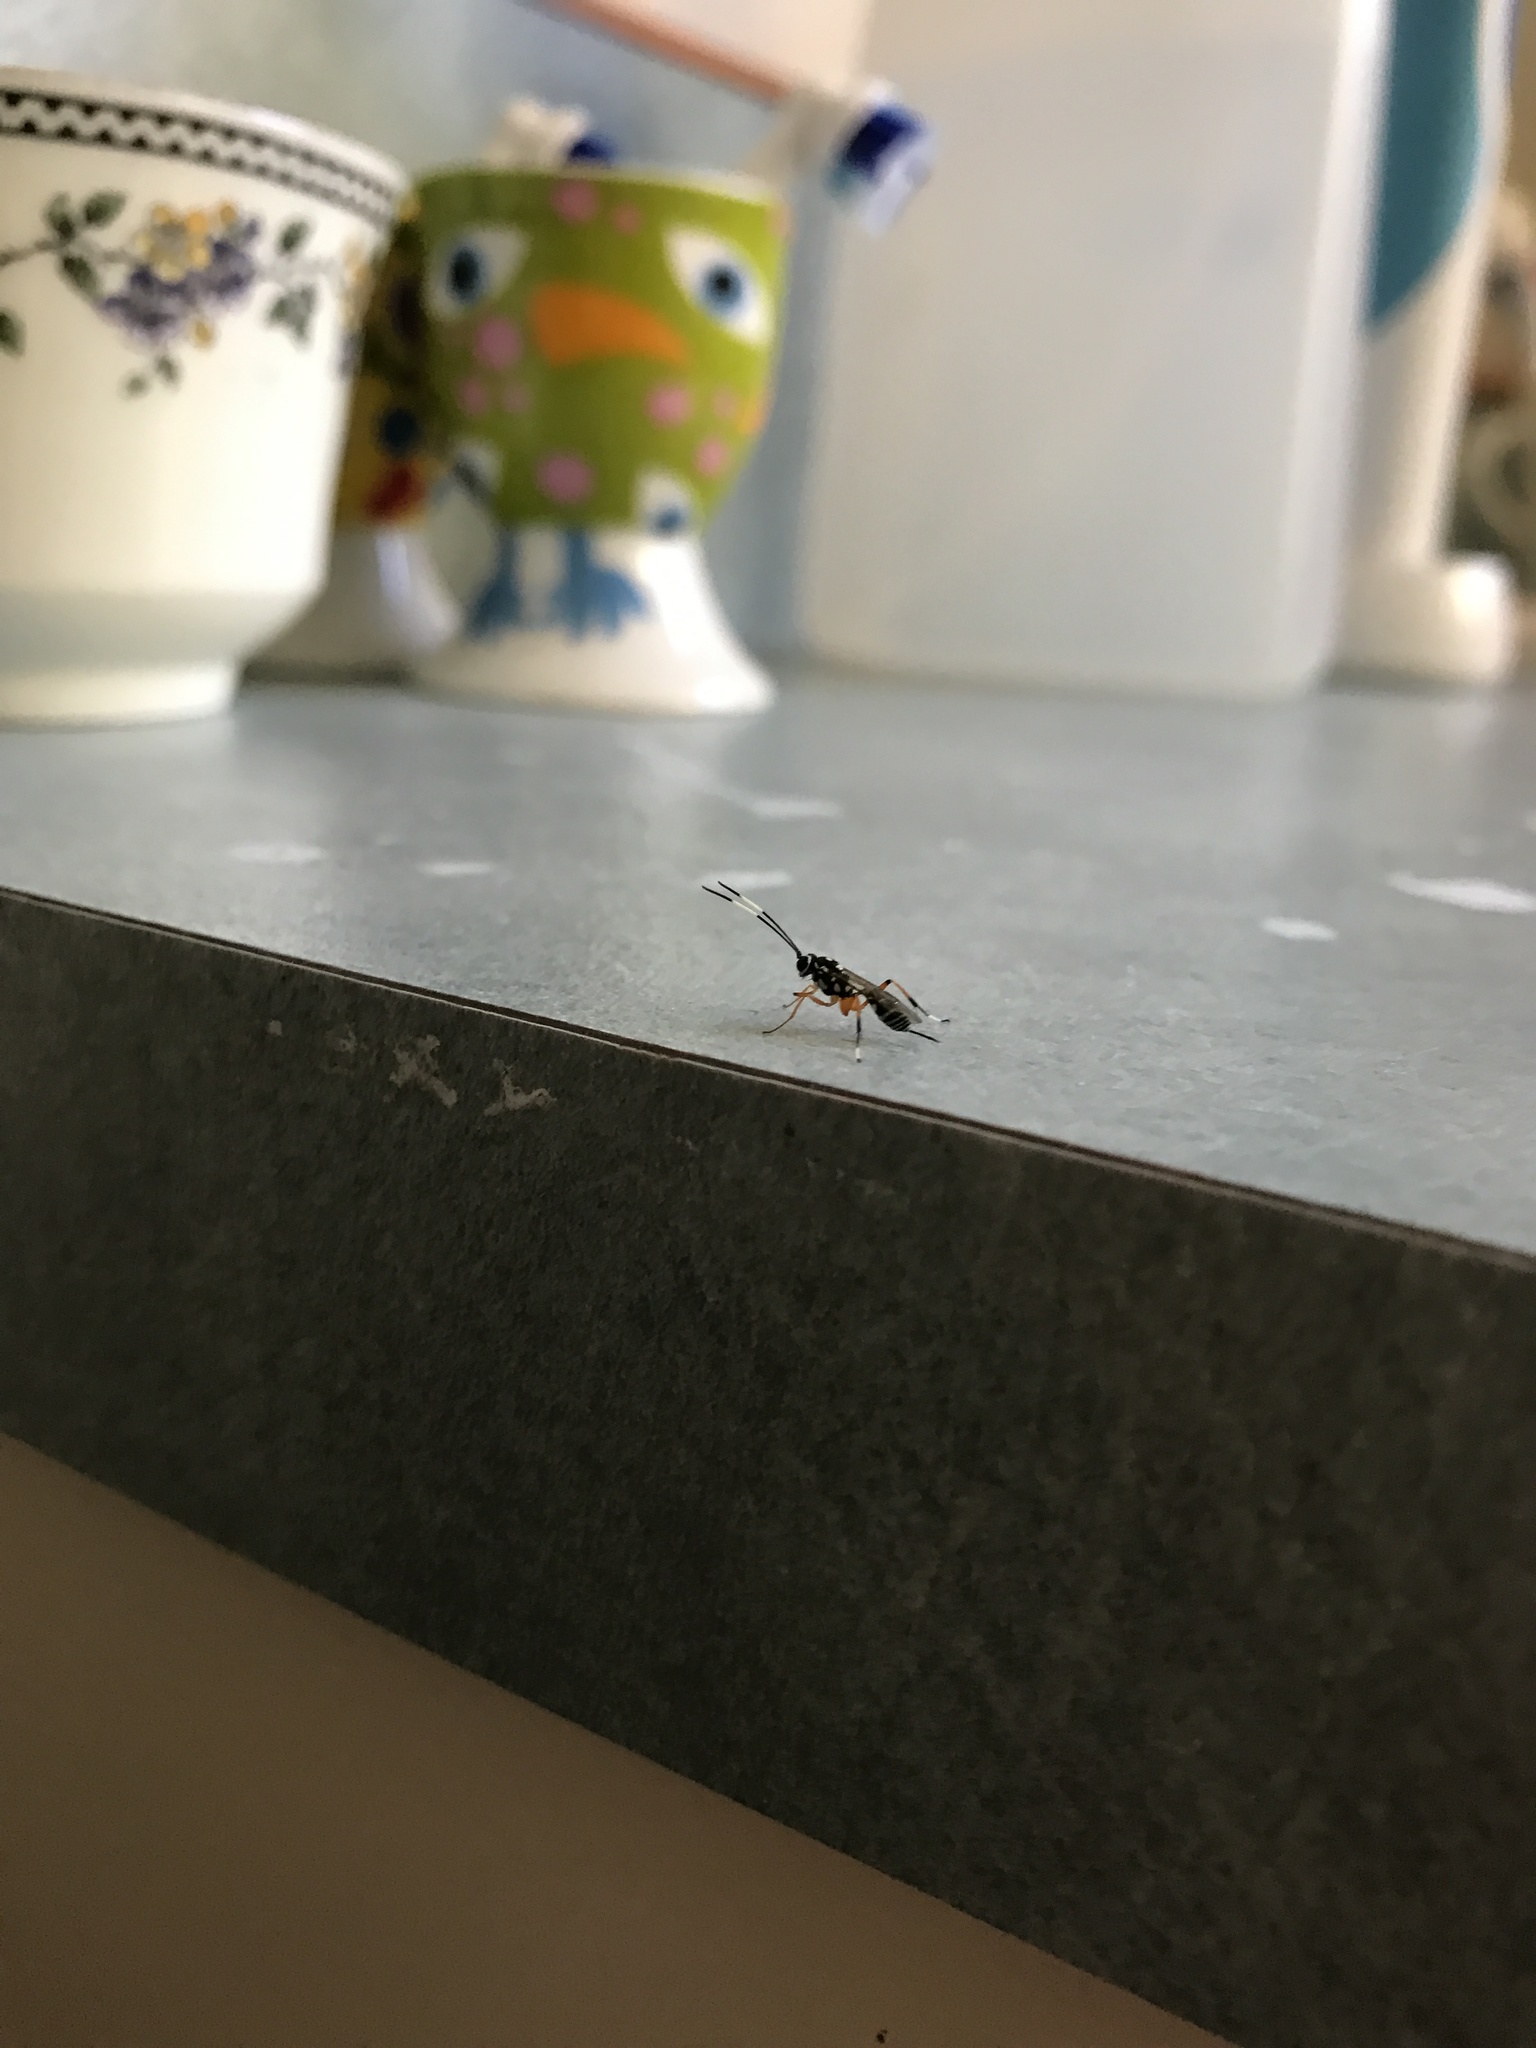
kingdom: Animalia
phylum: Arthropoda
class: Insecta
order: Hymenoptera
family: Ichneumonidae
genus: Glabridorsum
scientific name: Glabridorsum stokesii
